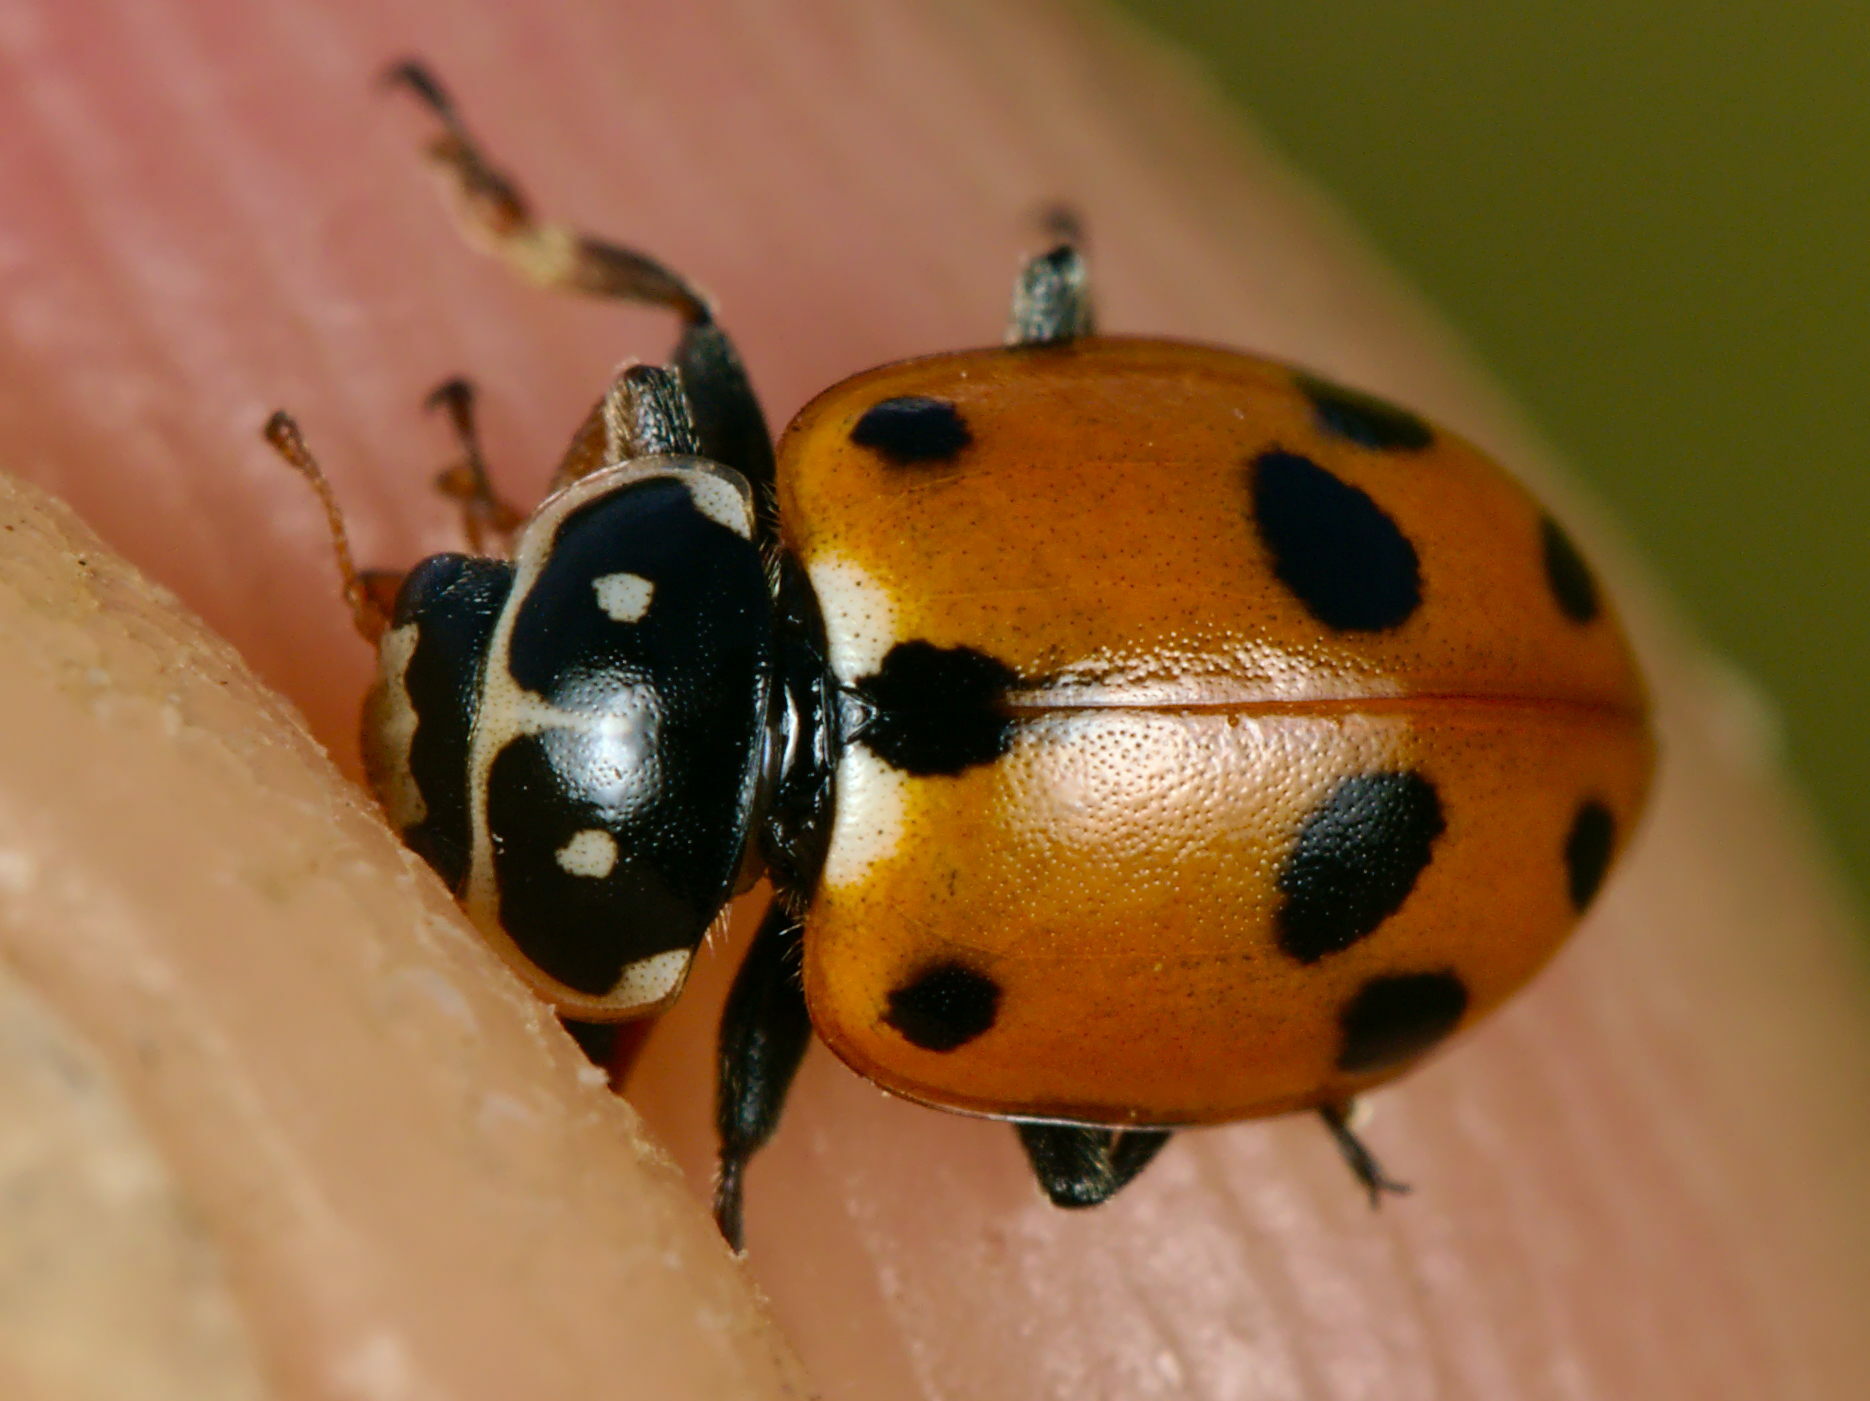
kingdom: Animalia
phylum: Arthropoda
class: Insecta
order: Coleoptera
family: Coccinellidae
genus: Hippodamia
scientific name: Hippodamia variegata
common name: Ladybird beetle
